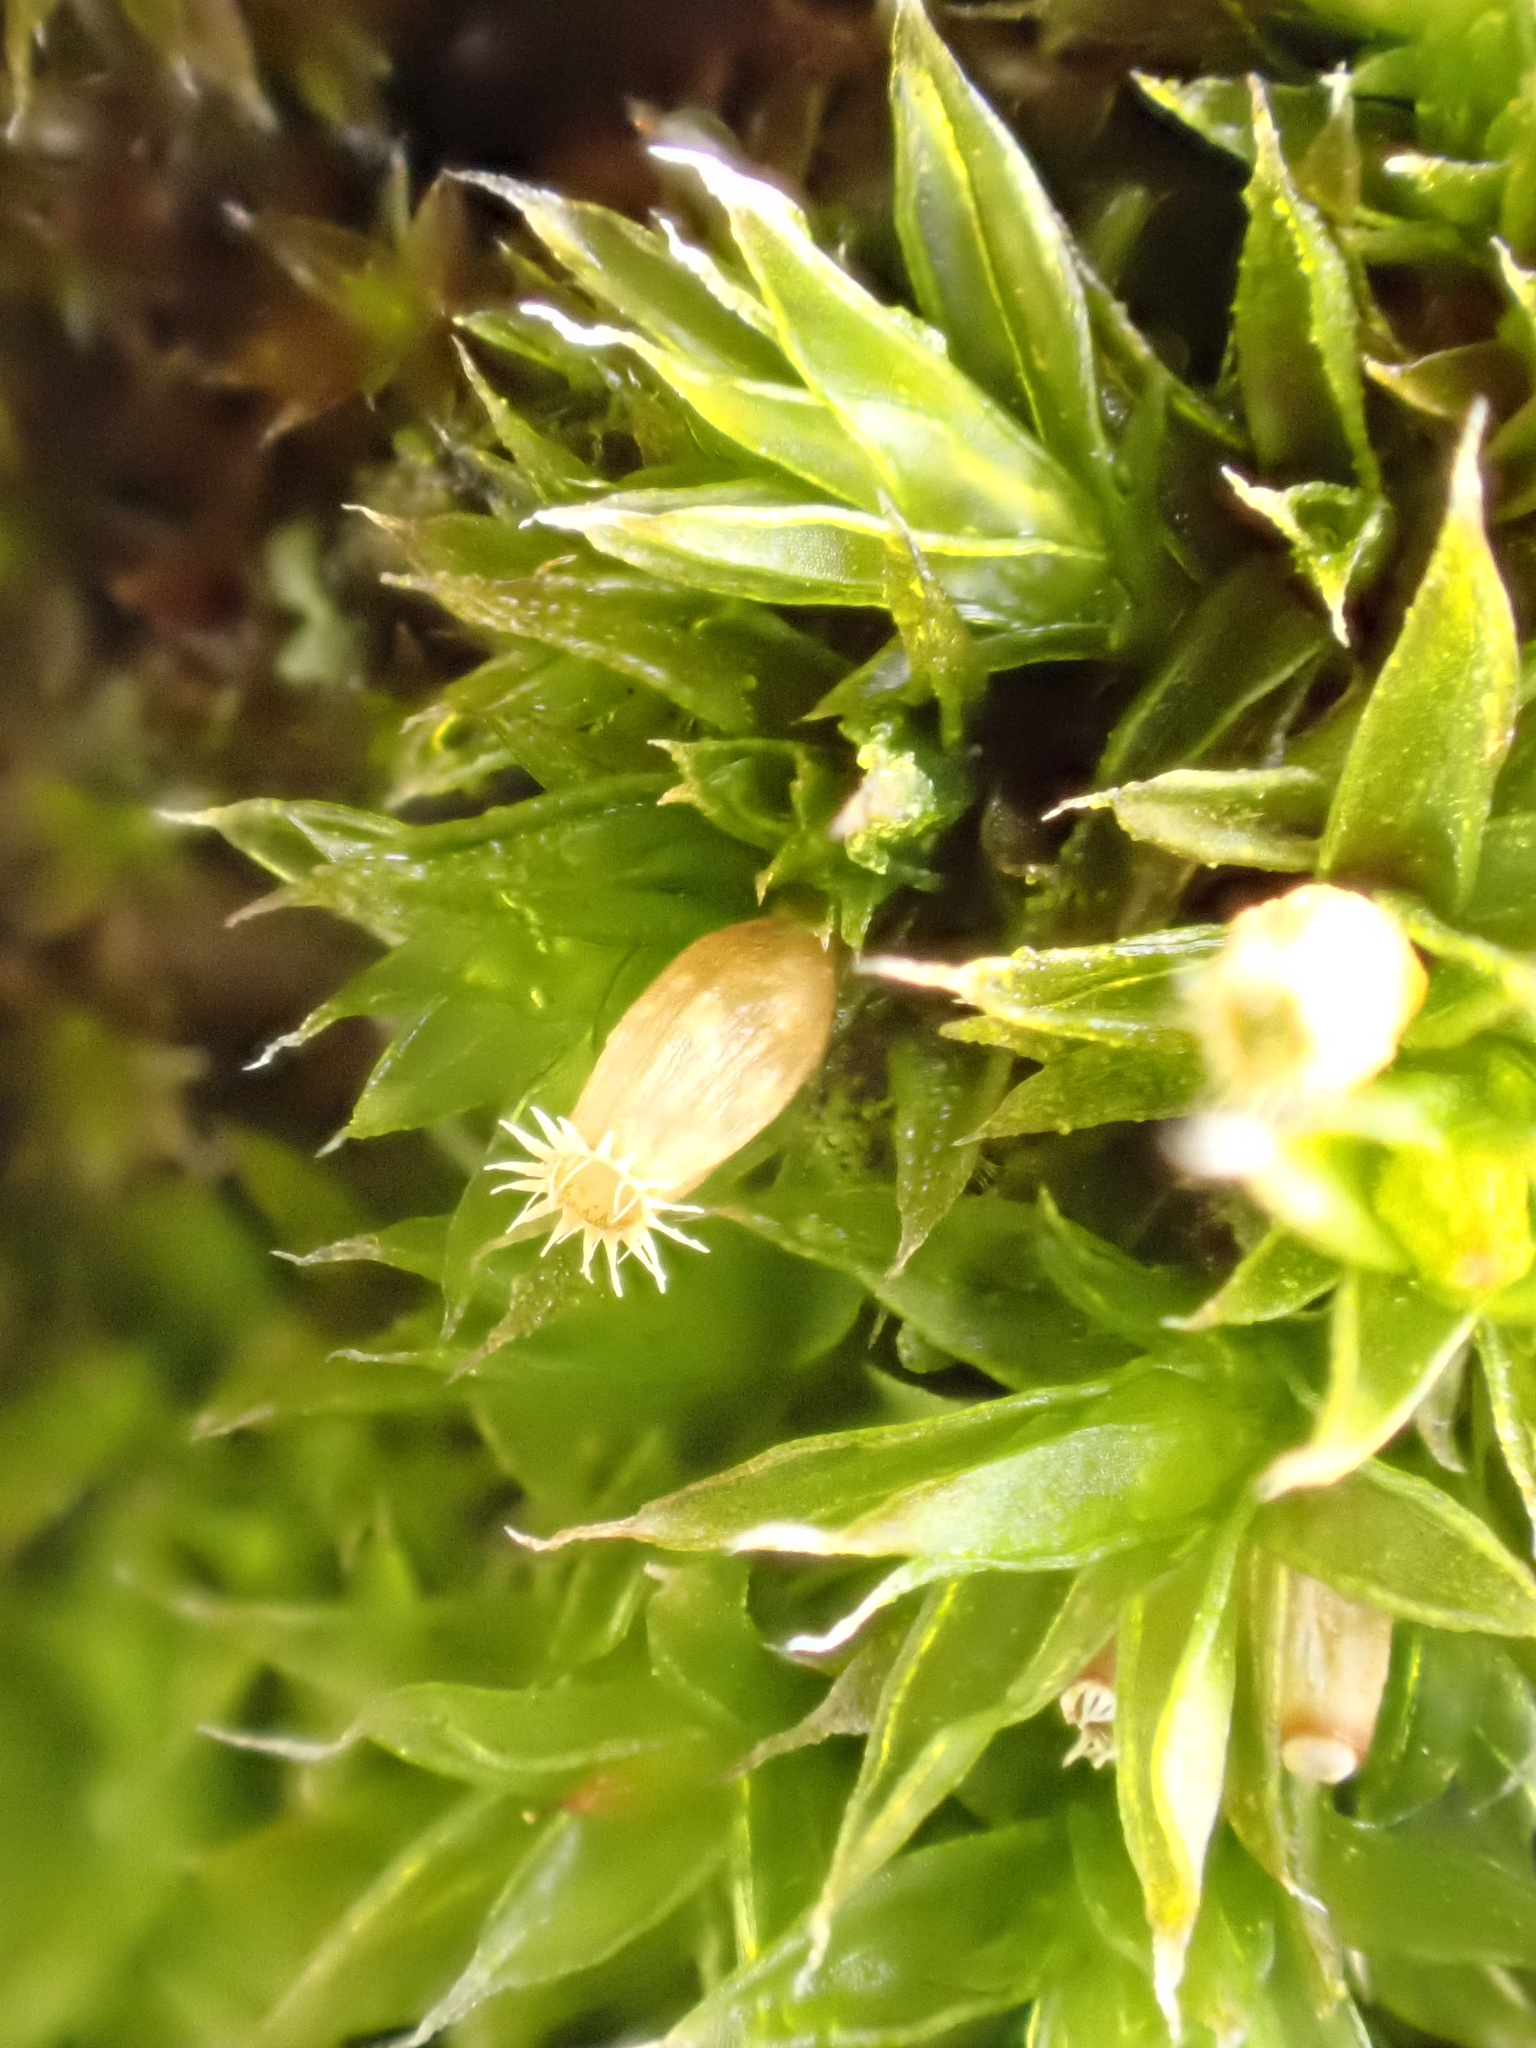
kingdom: Plantae
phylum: Bryophyta
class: Bryopsida
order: Orthotrichales
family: Orthotrichaceae
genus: Orthotrichum
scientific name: Orthotrichum diaphanum
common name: White-tipped bristle-moss
